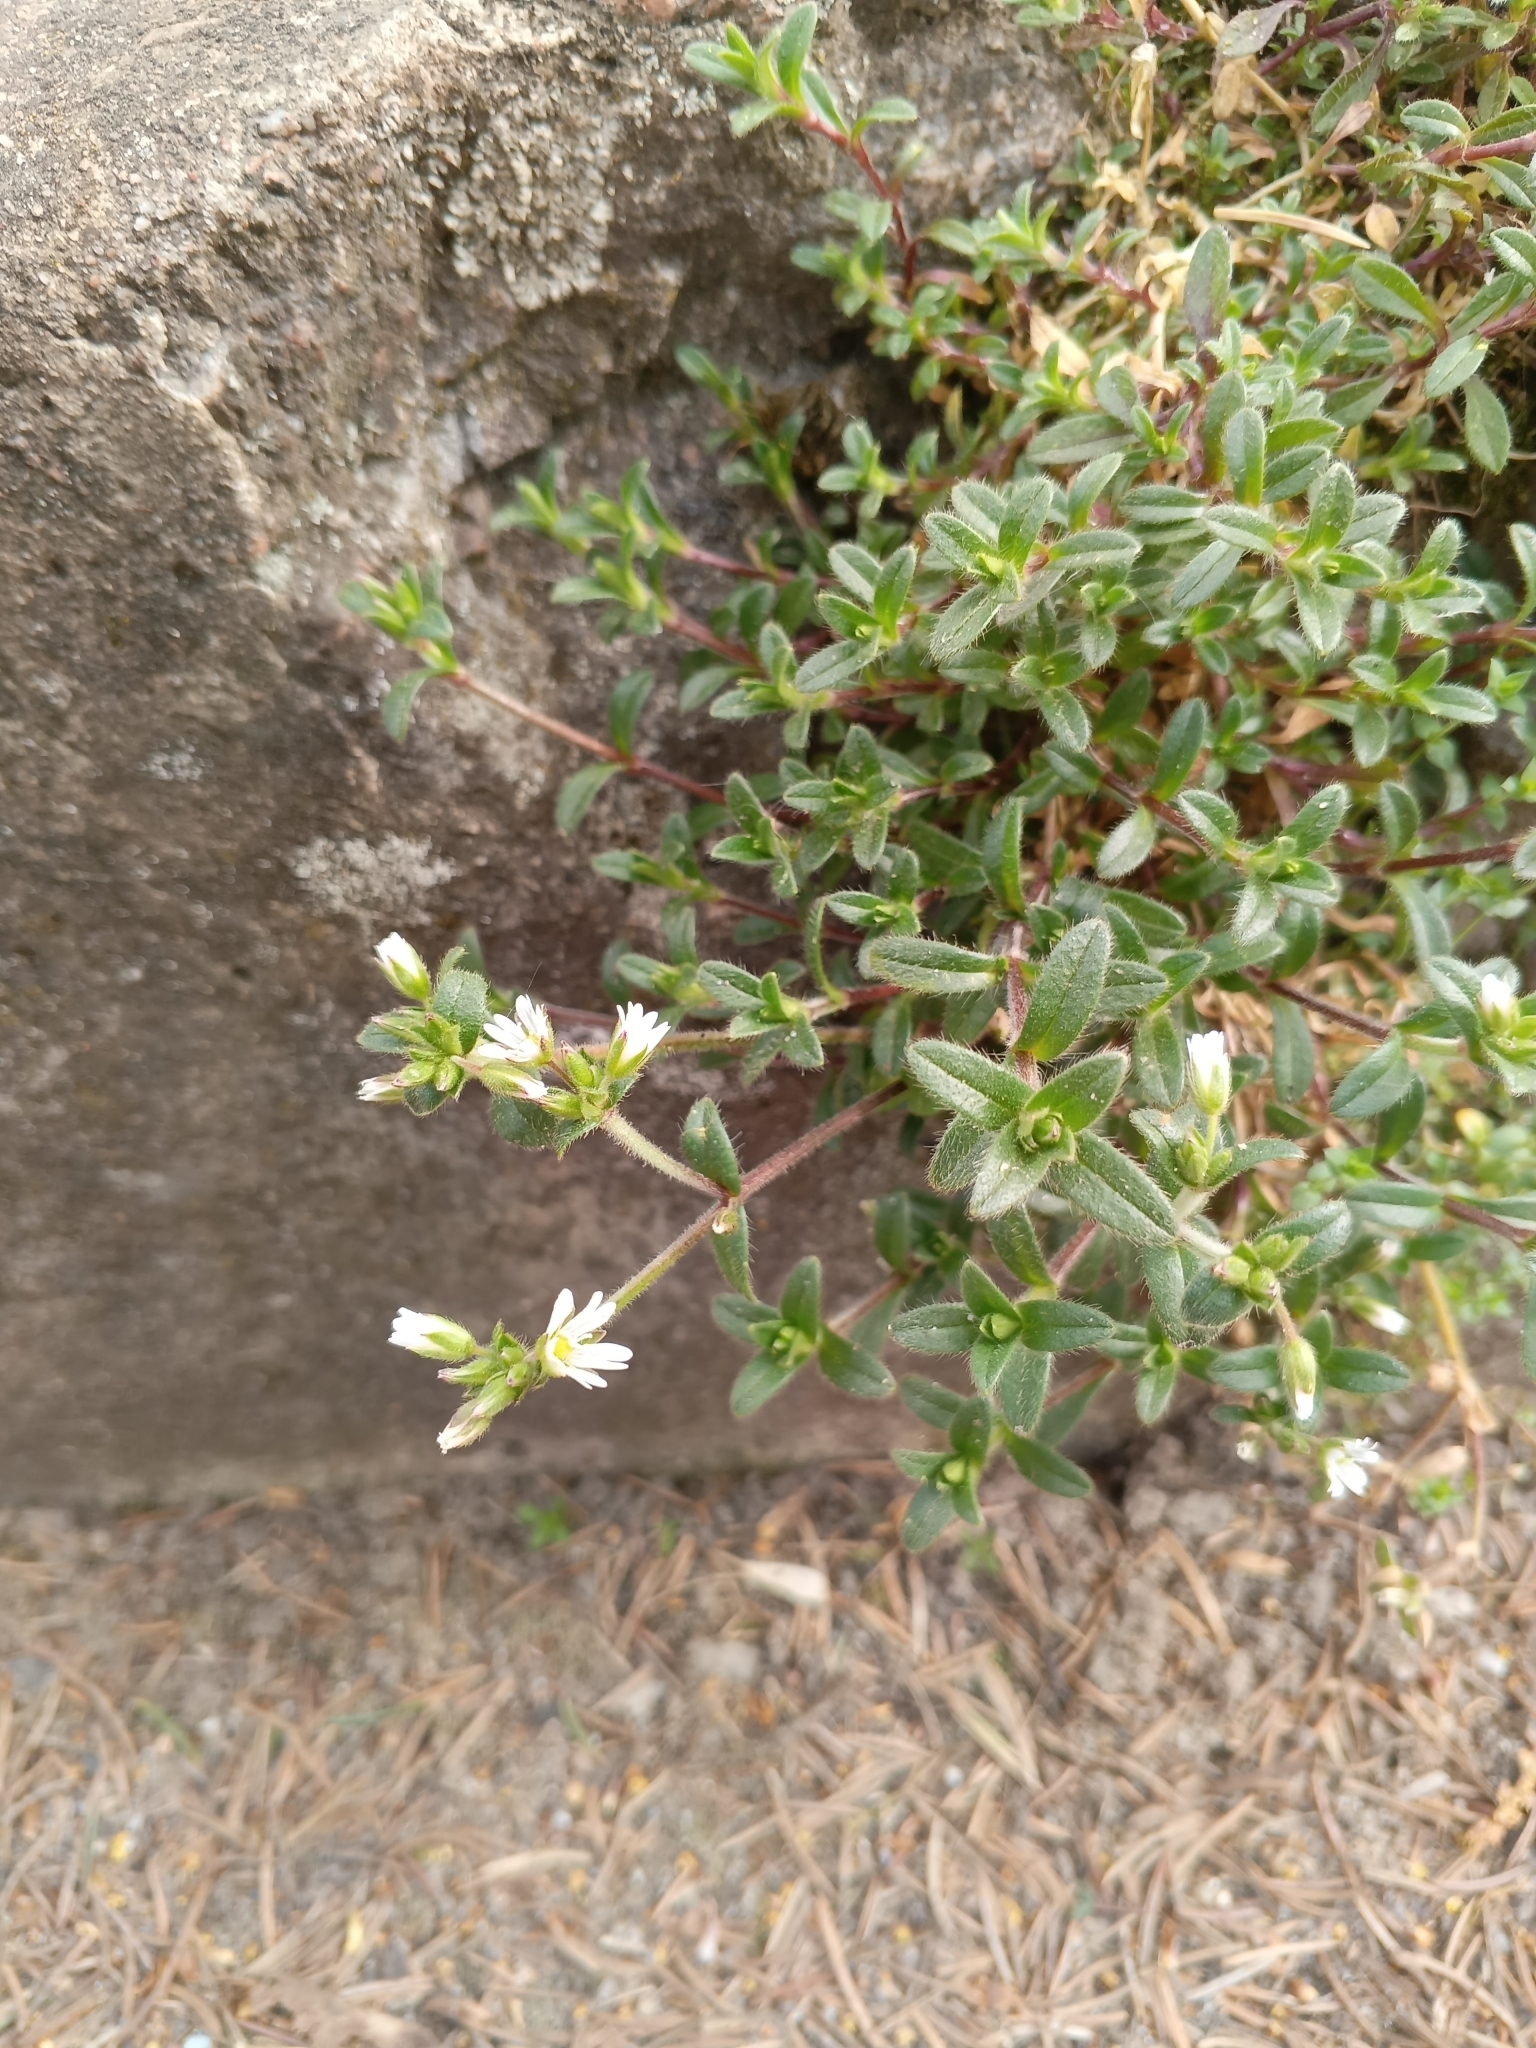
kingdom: Plantae
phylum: Tracheophyta
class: Magnoliopsida
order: Caryophyllales
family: Caryophyllaceae
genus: Cerastium
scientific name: Cerastium holosteoides
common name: Big chickweed
